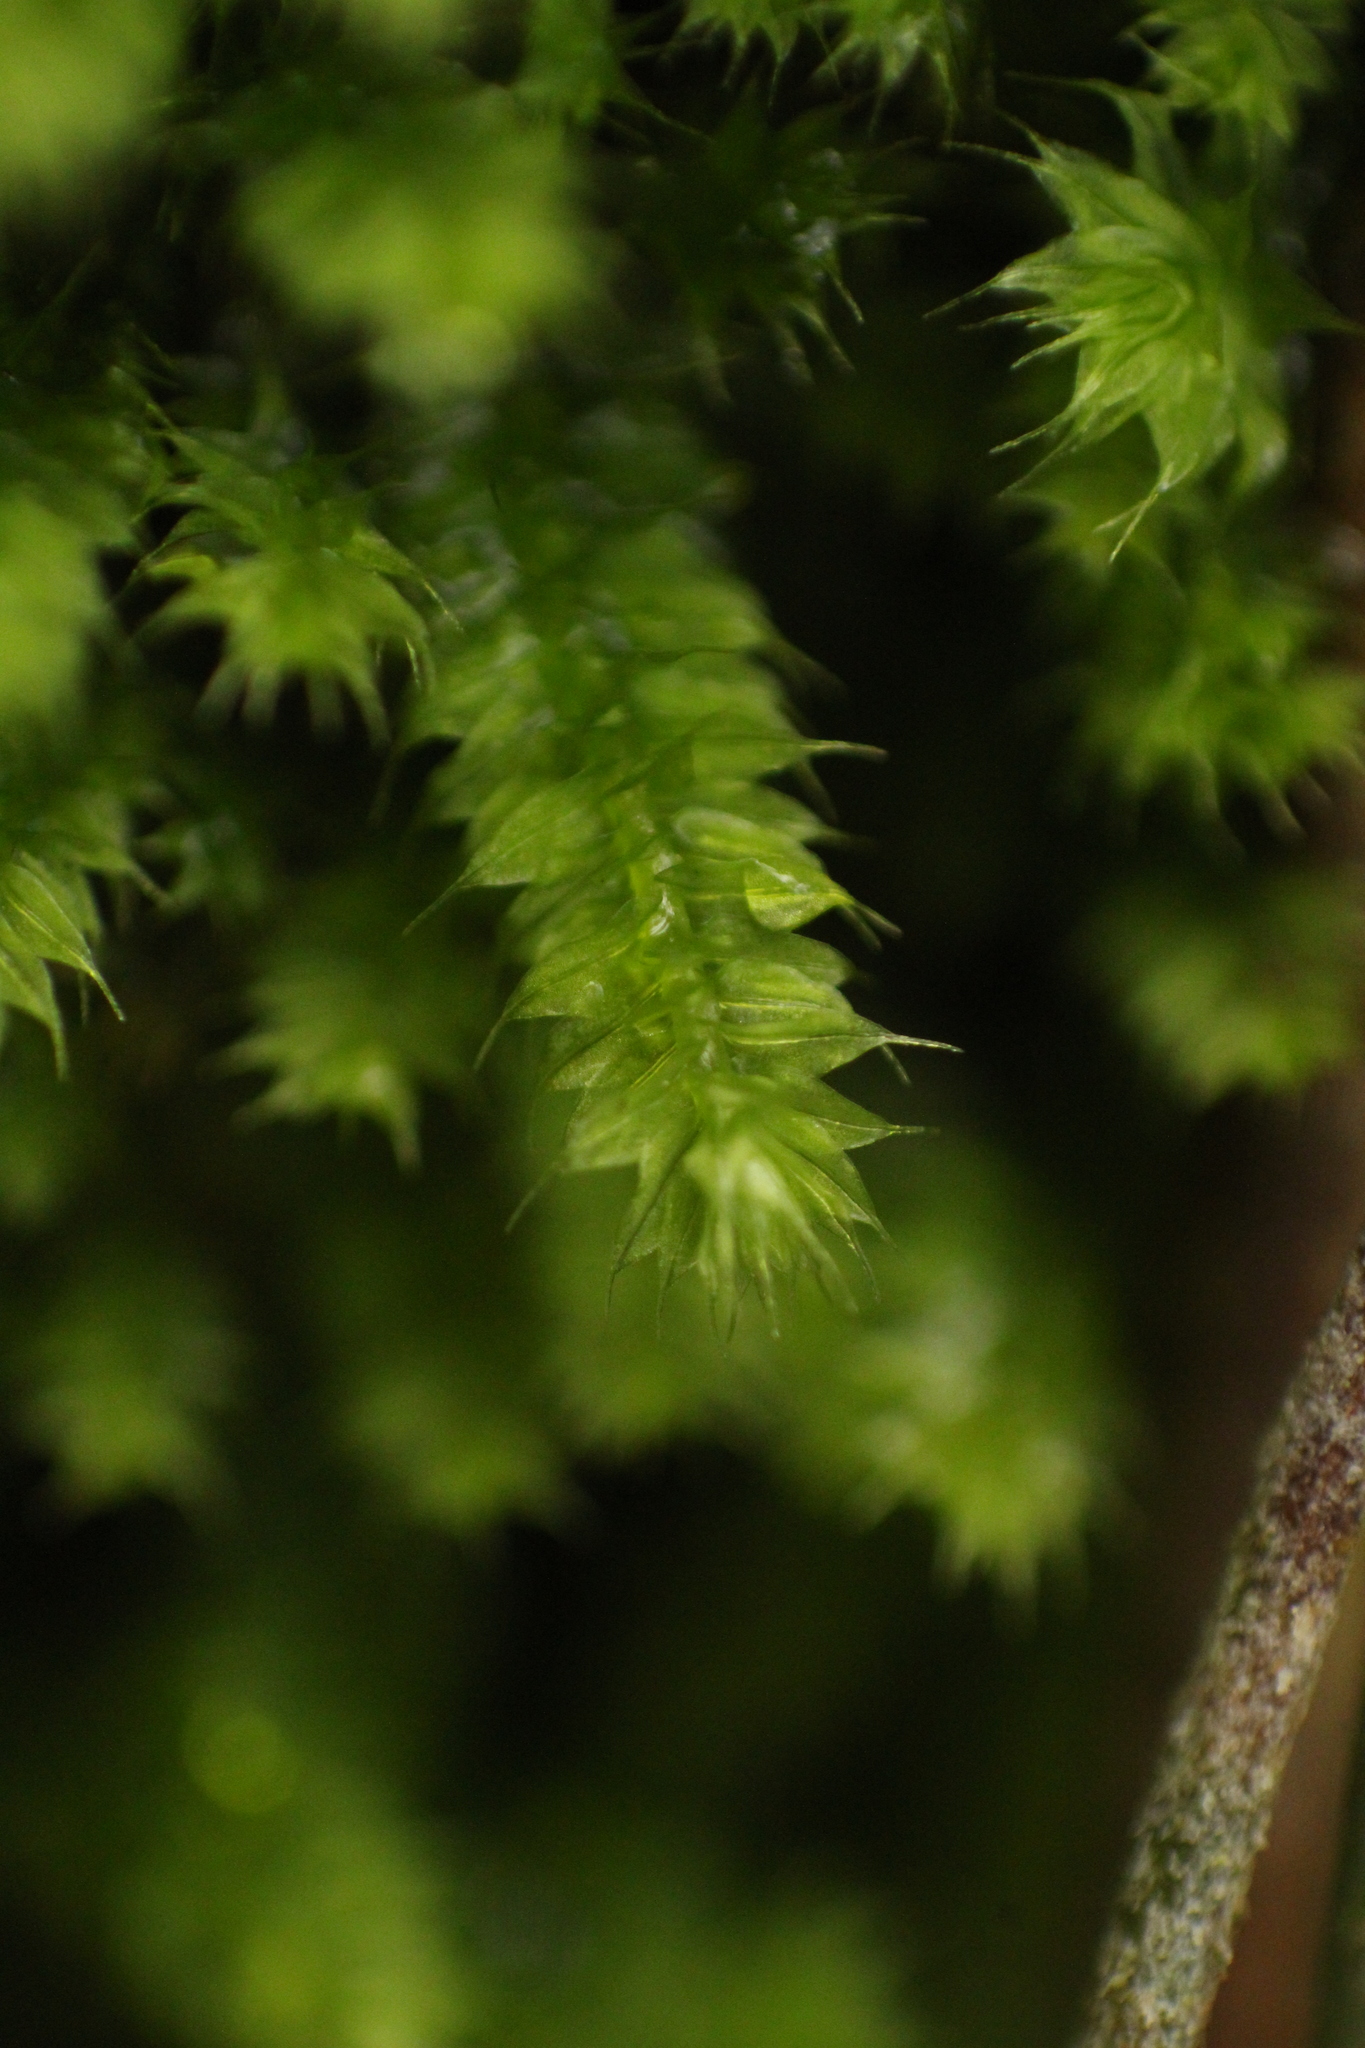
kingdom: Plantae
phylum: Bryophyta
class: Bryopsida
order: Hypnodendrales
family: Racopilaceae
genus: Racopilum
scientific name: Racopilum cuspidigerum
